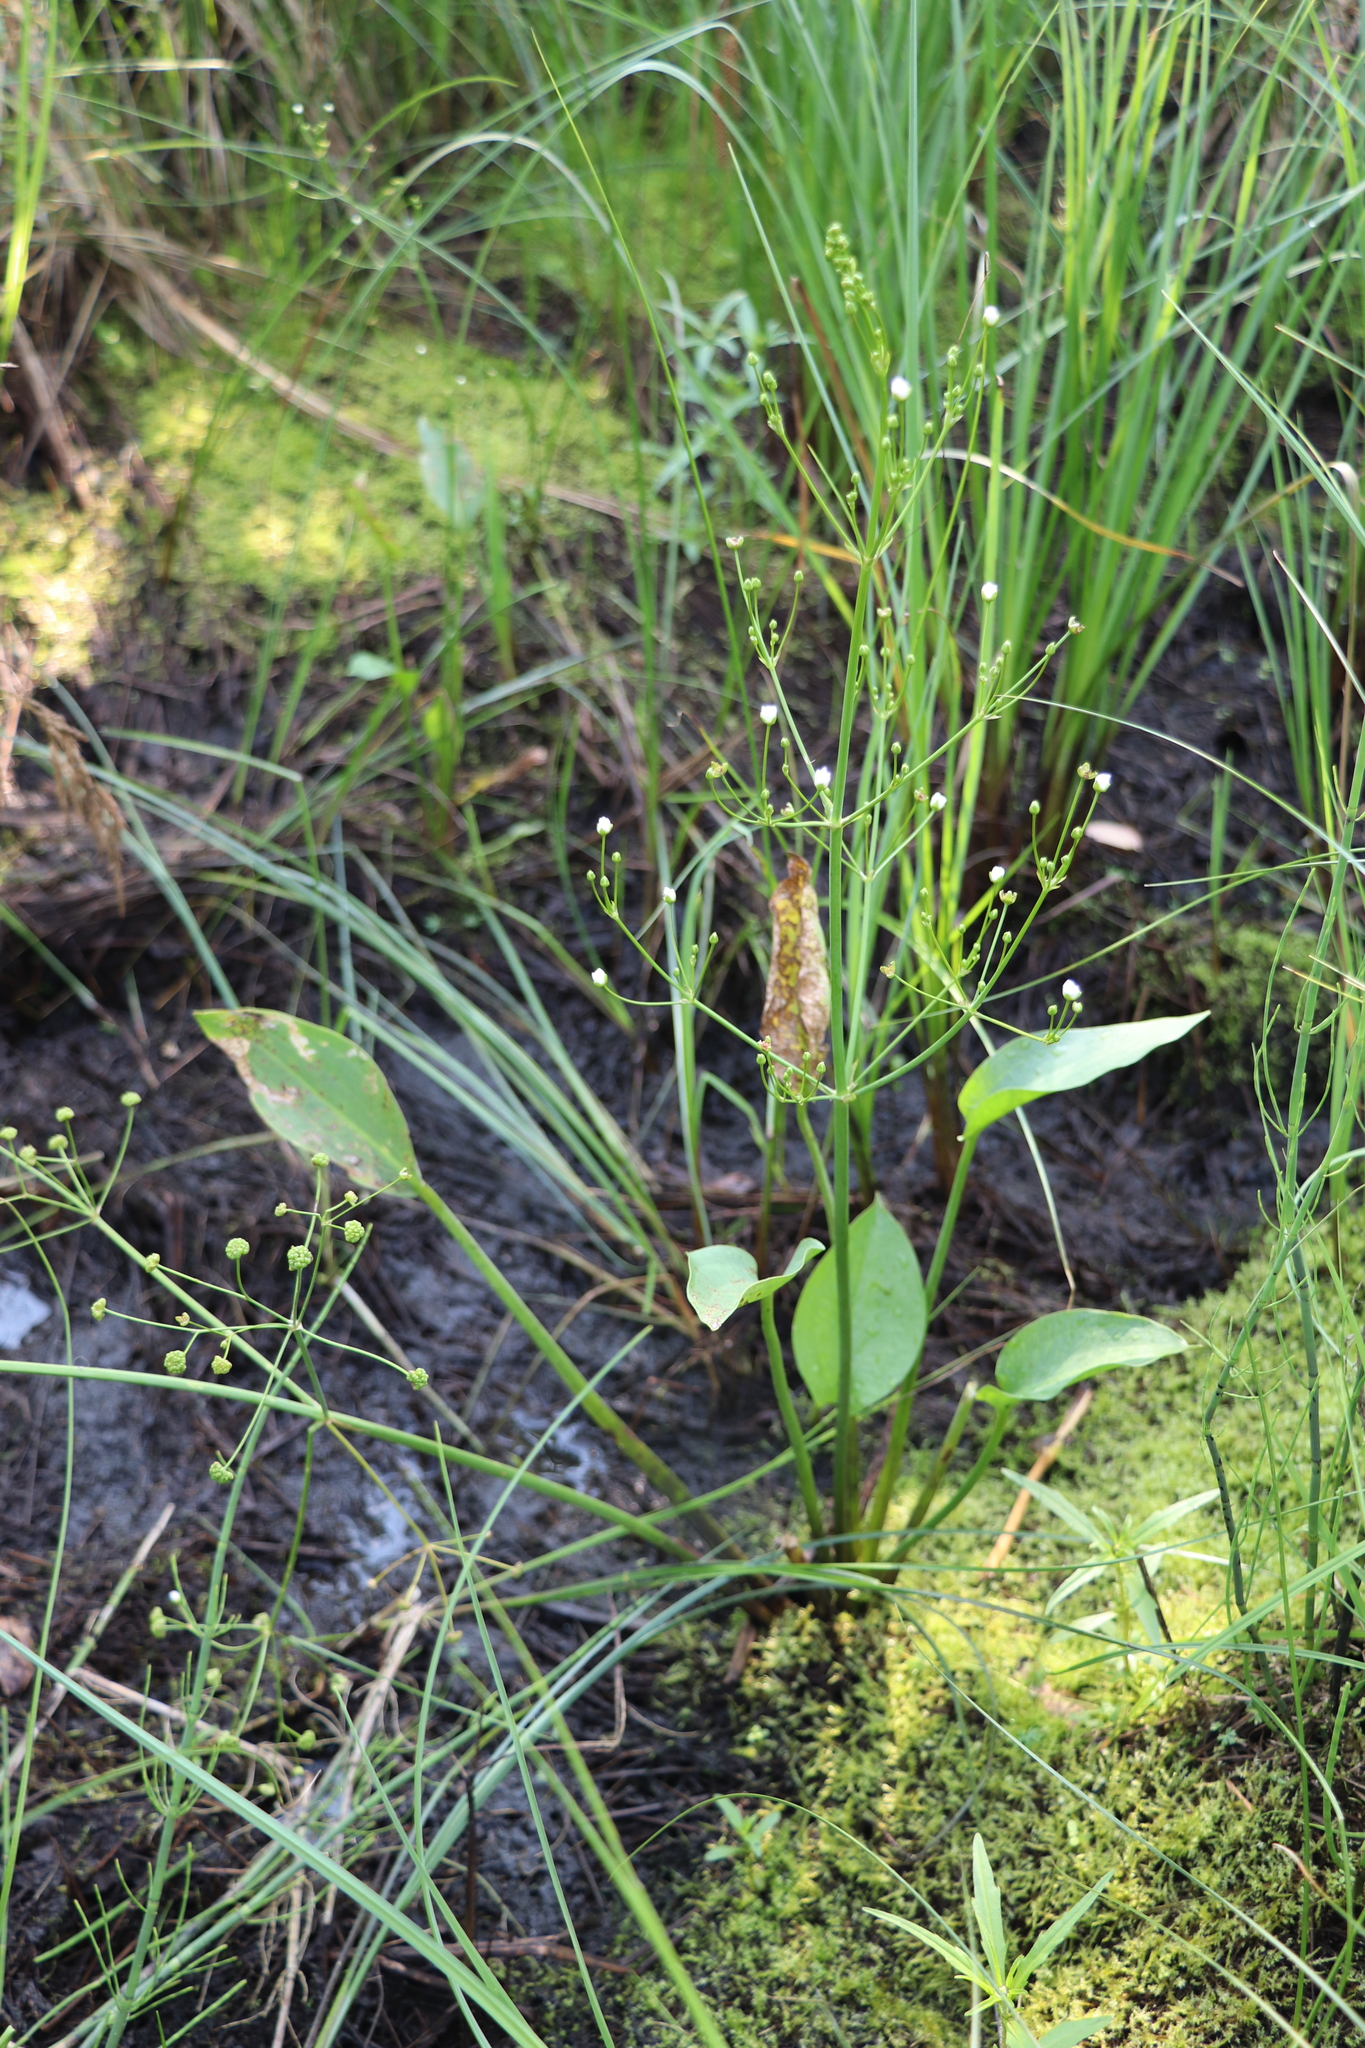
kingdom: Plantae
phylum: Tracheophyta
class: Liliopsida
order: Alismatales
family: Alismataceae
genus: Alisma
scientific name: Alisma plantago-aquatica
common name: Water-plantain
